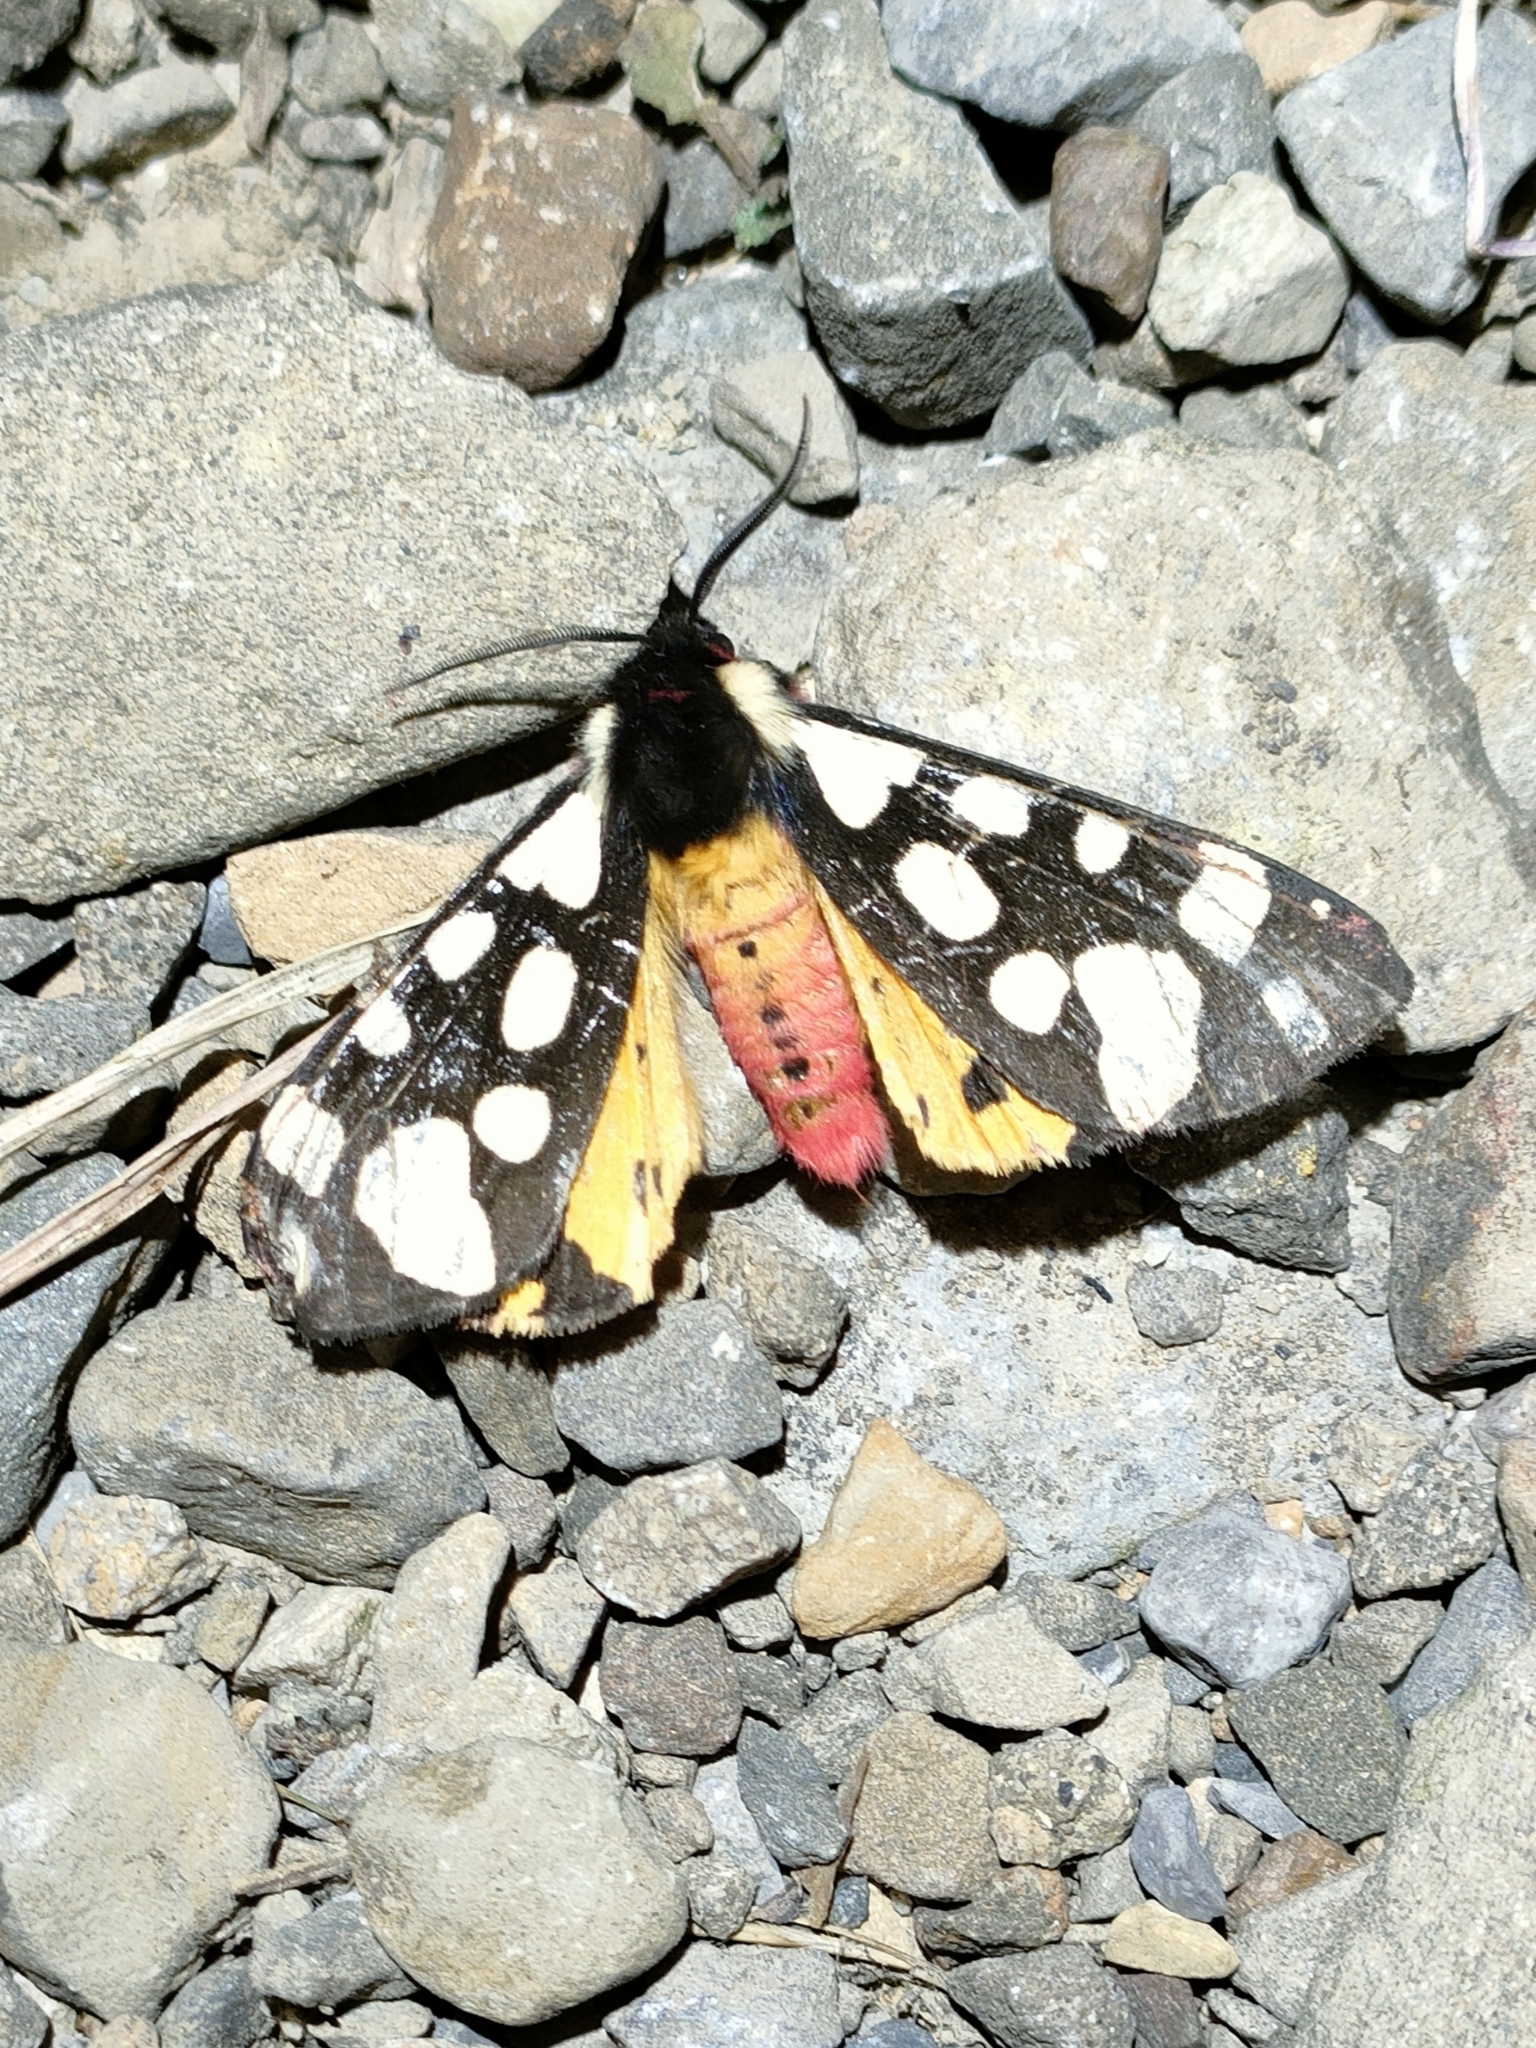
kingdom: Animalia
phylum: Arthropoda
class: Insecta
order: Lepidoptera
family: Erebidae
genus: Epicallia
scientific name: Epicallia villica
